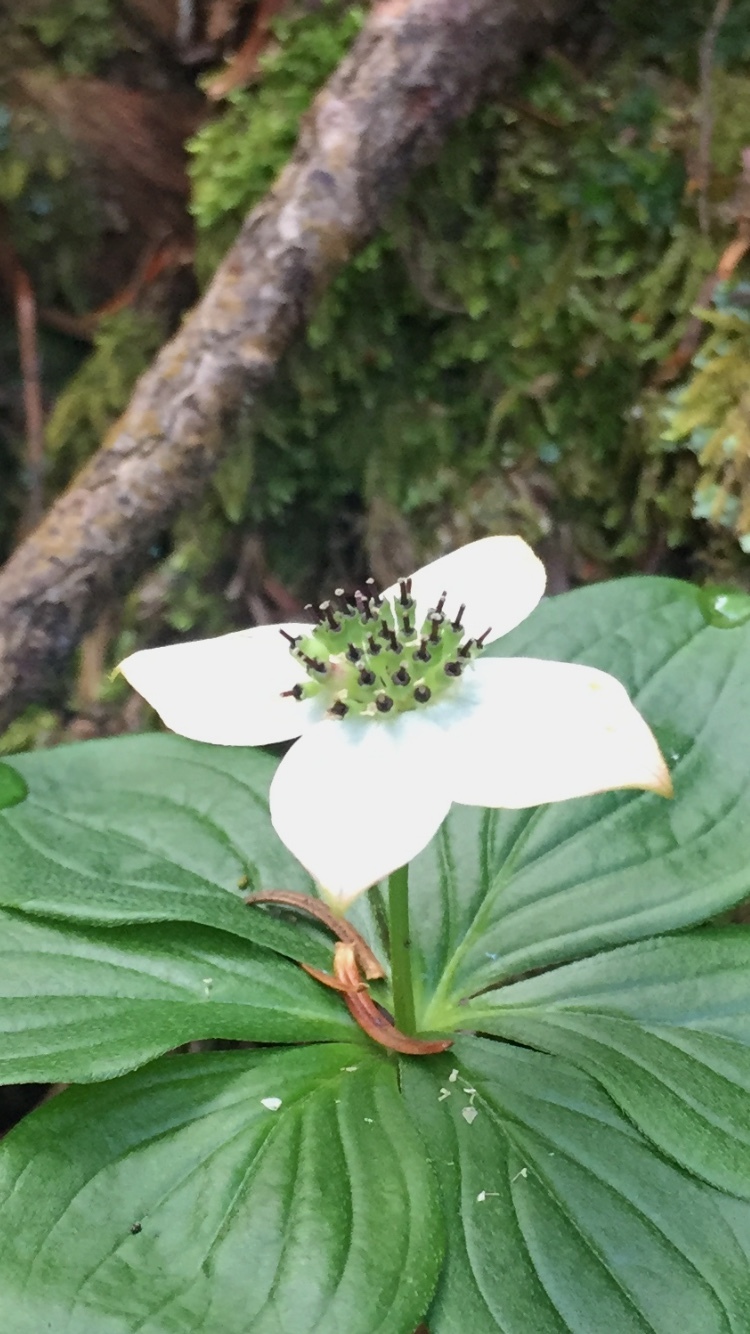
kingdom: Plantae
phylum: Tracheophyta
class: Magnoliopsida
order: Cornales
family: Cornaceae
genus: Cornus
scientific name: Cornus canadensis
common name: Creeping dogwood
